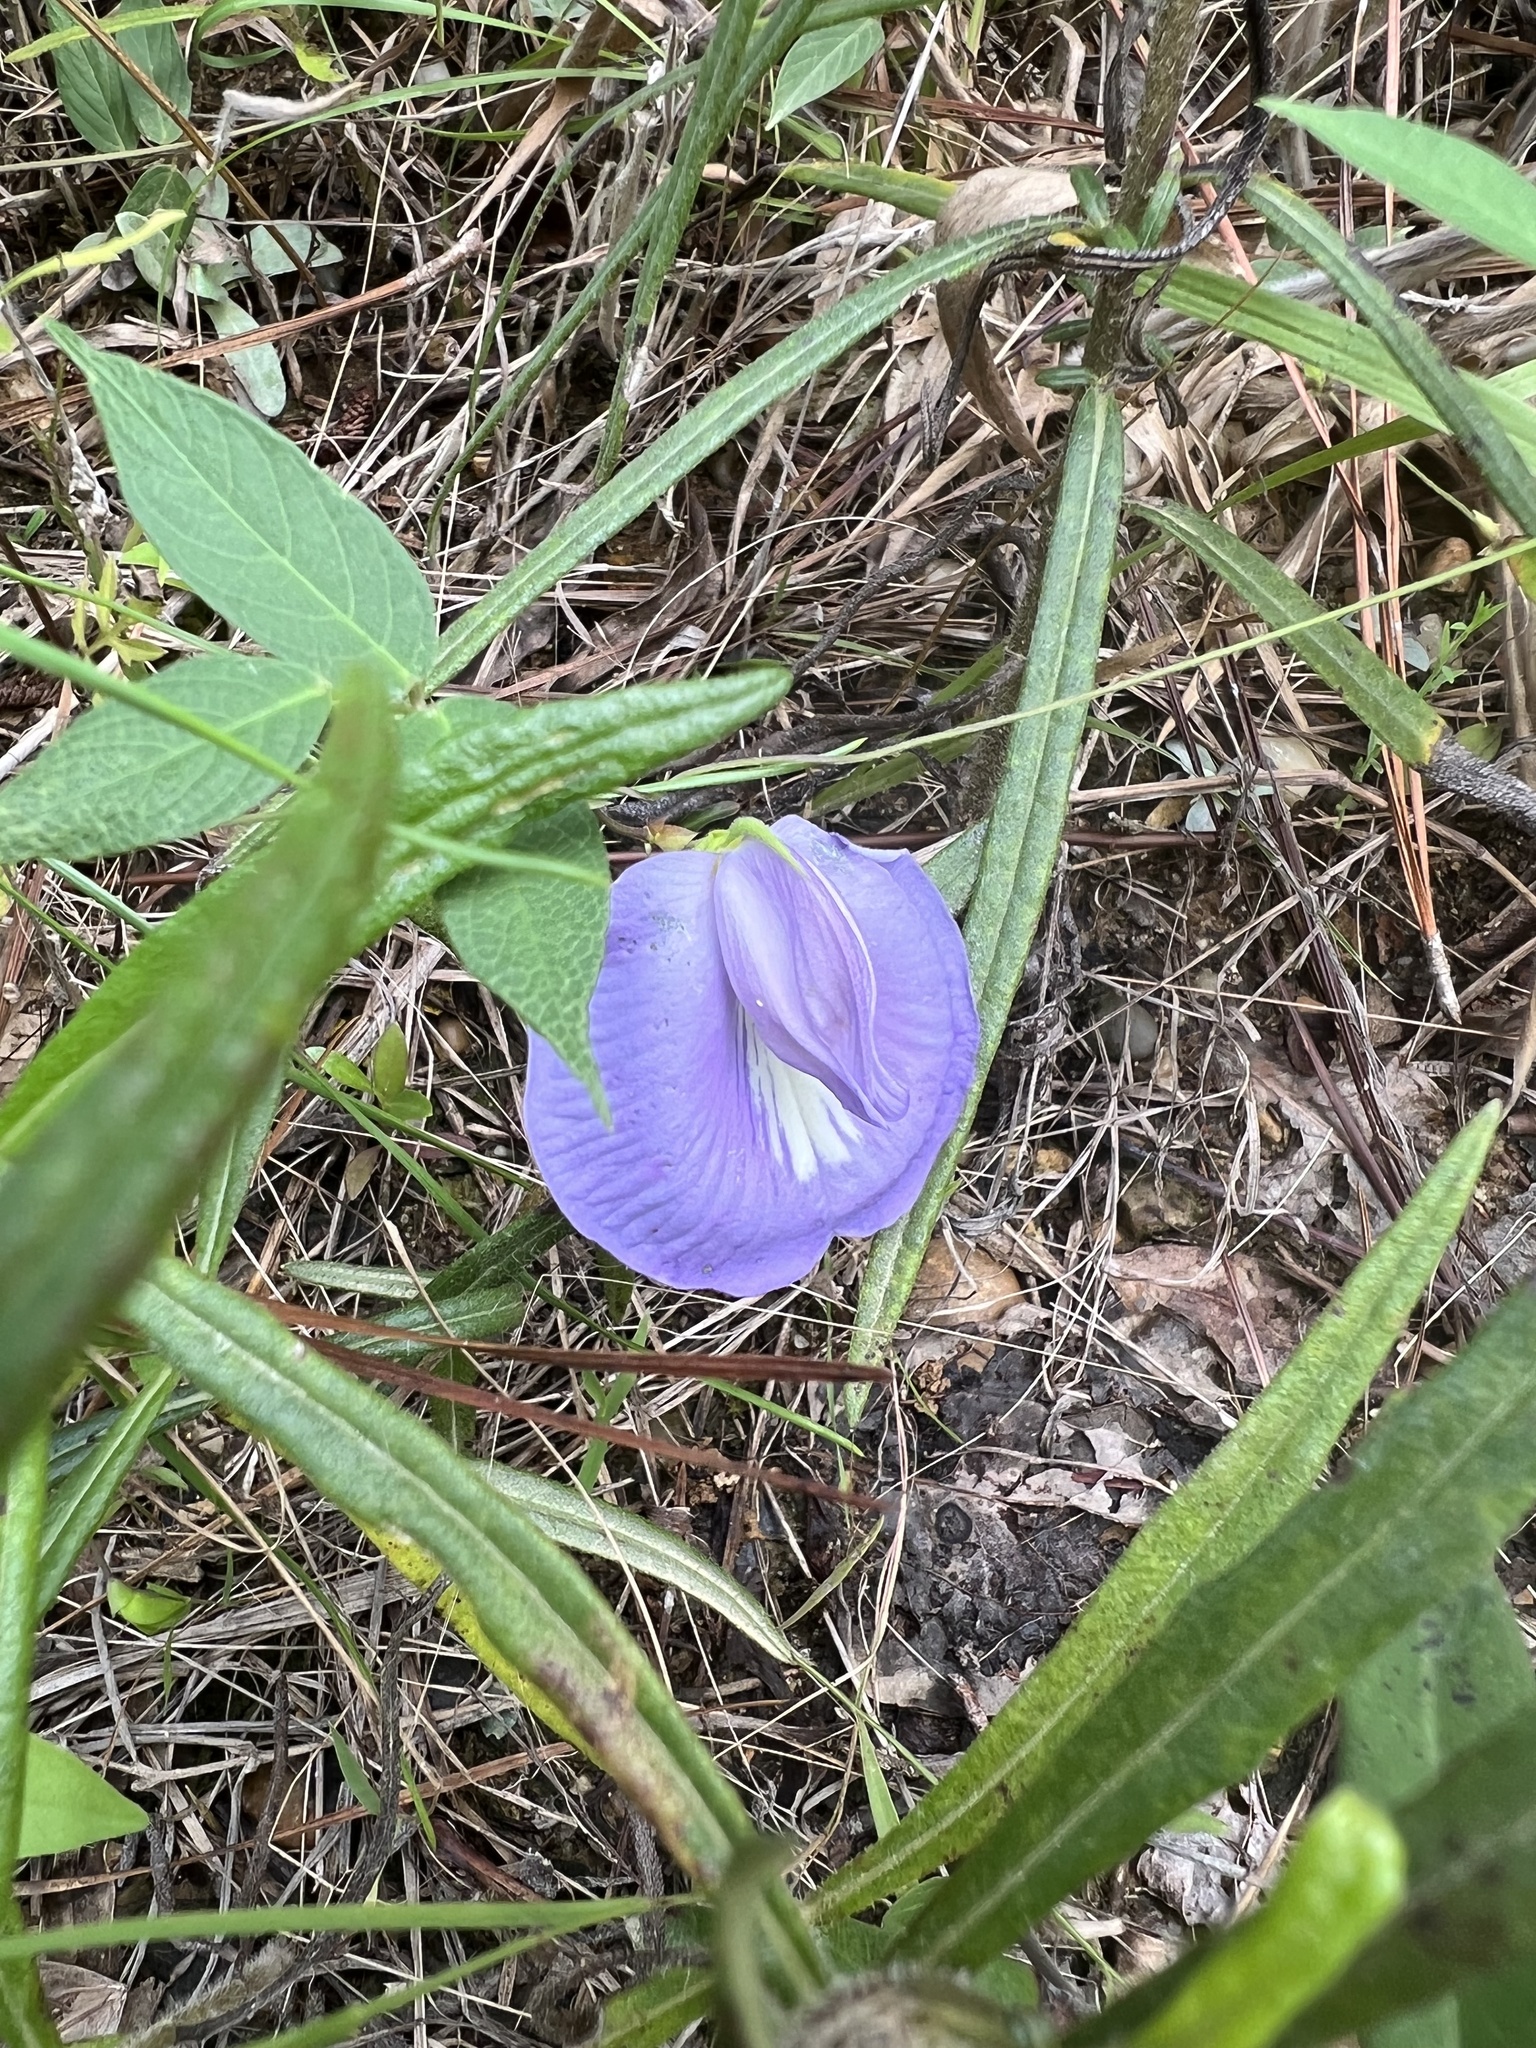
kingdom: Plantae
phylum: Tracheophyta
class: Magnoliopsida
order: Fabales
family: Fabaceae
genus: Centrosema
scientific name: Centrosema virginianum
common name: Butterfly-pea
